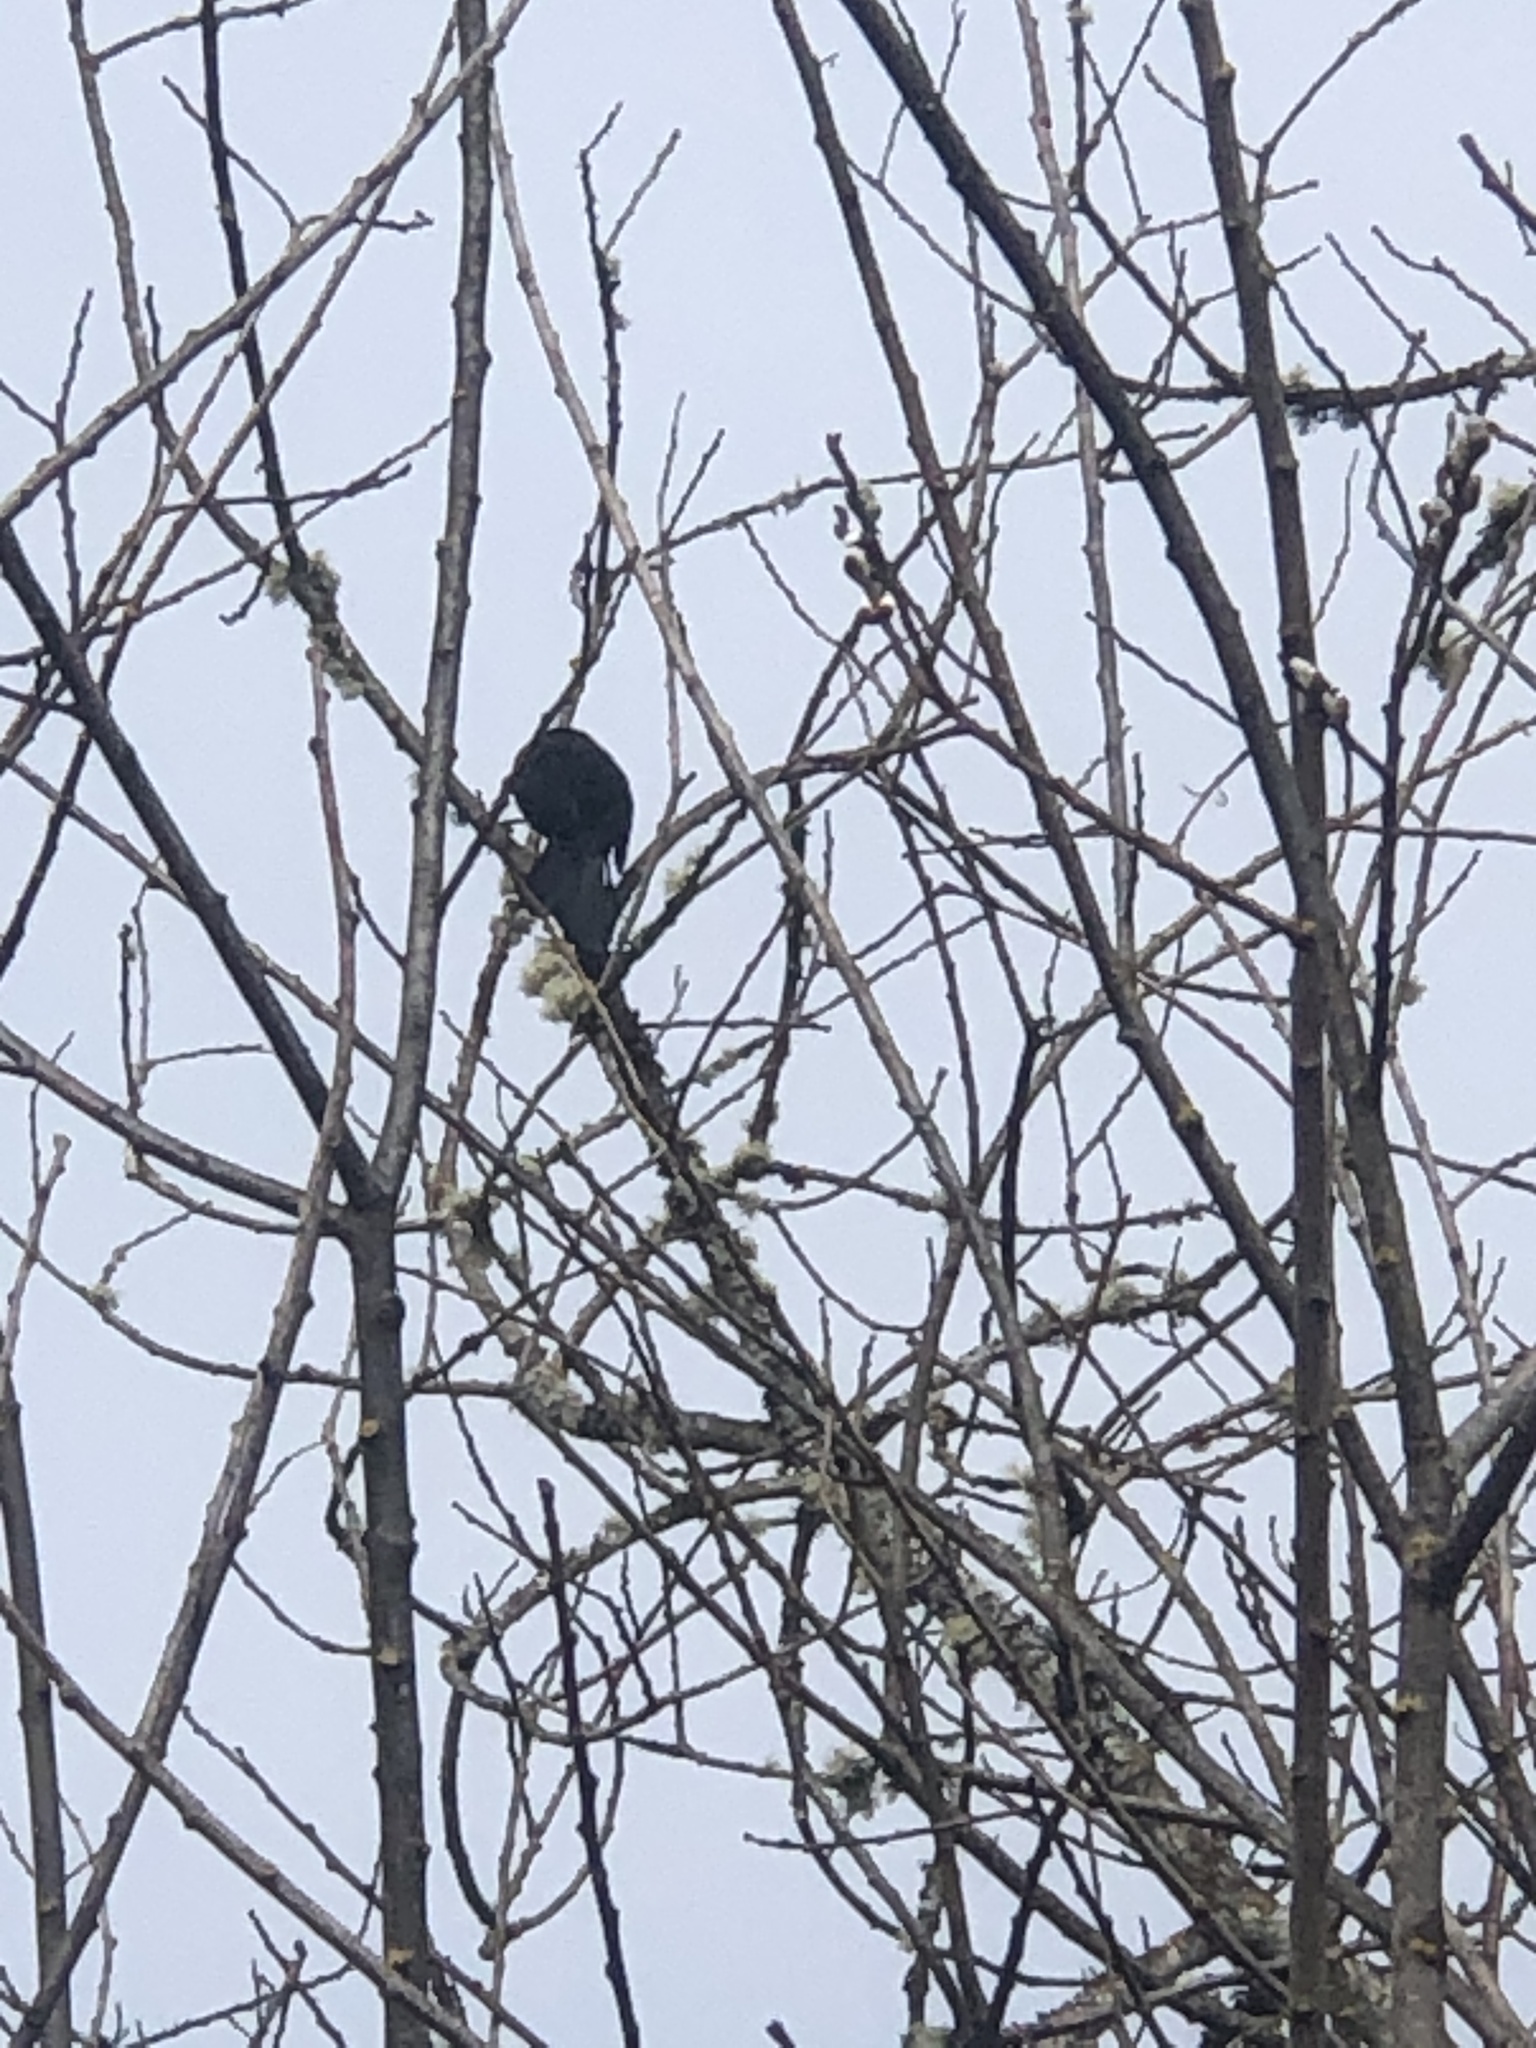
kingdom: Animalia
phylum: Chordata
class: Aves
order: Passeriformes
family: Icteridae
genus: Agelaius
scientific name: Agelaius phoeniceus
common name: Red-winged blackbird
